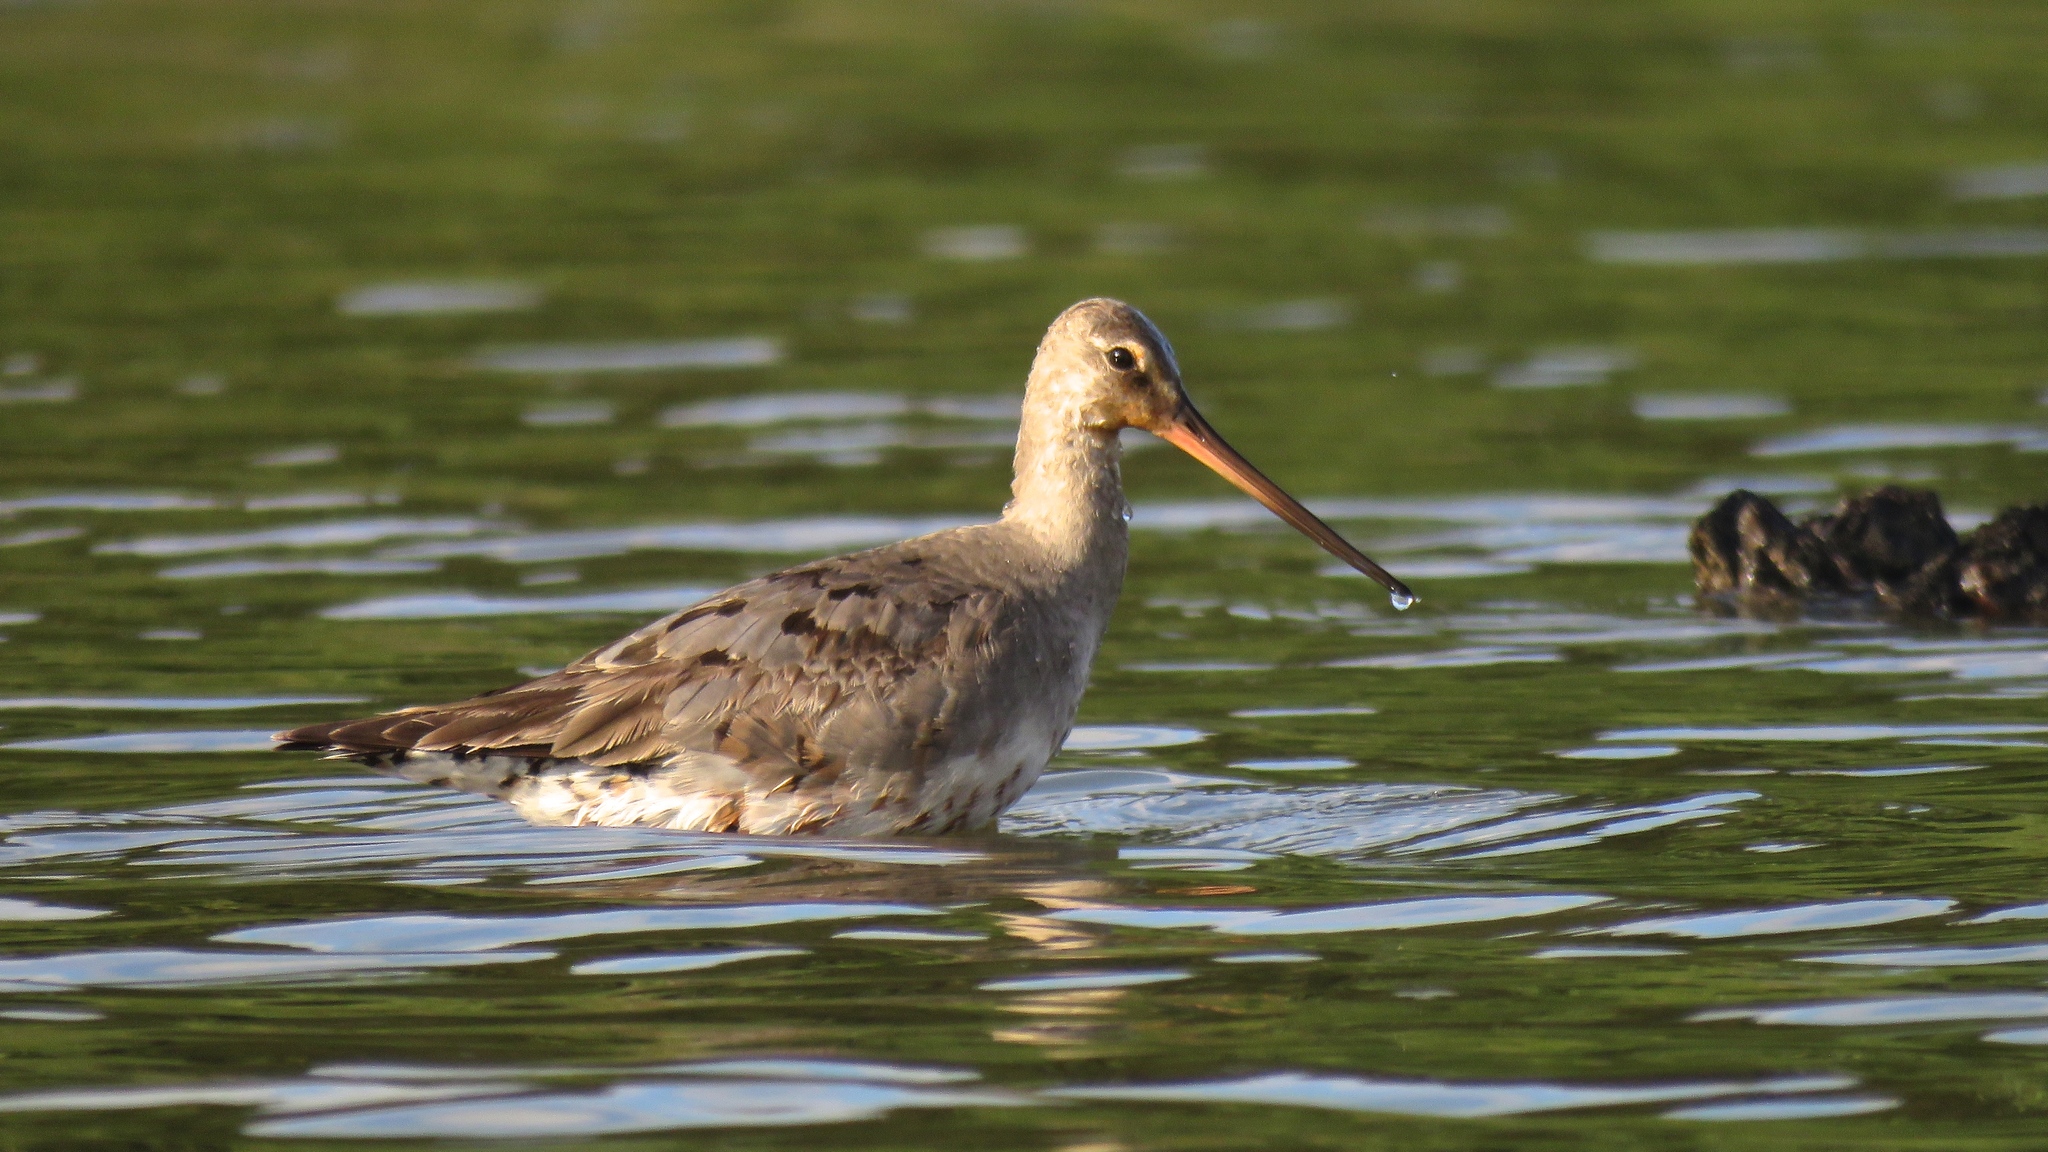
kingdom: Animalia
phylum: Chordata
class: Aves
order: Charadriiformes
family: Scolopacidae
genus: Limosa
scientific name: Limosa haemastica
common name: Hudsonian godwit
